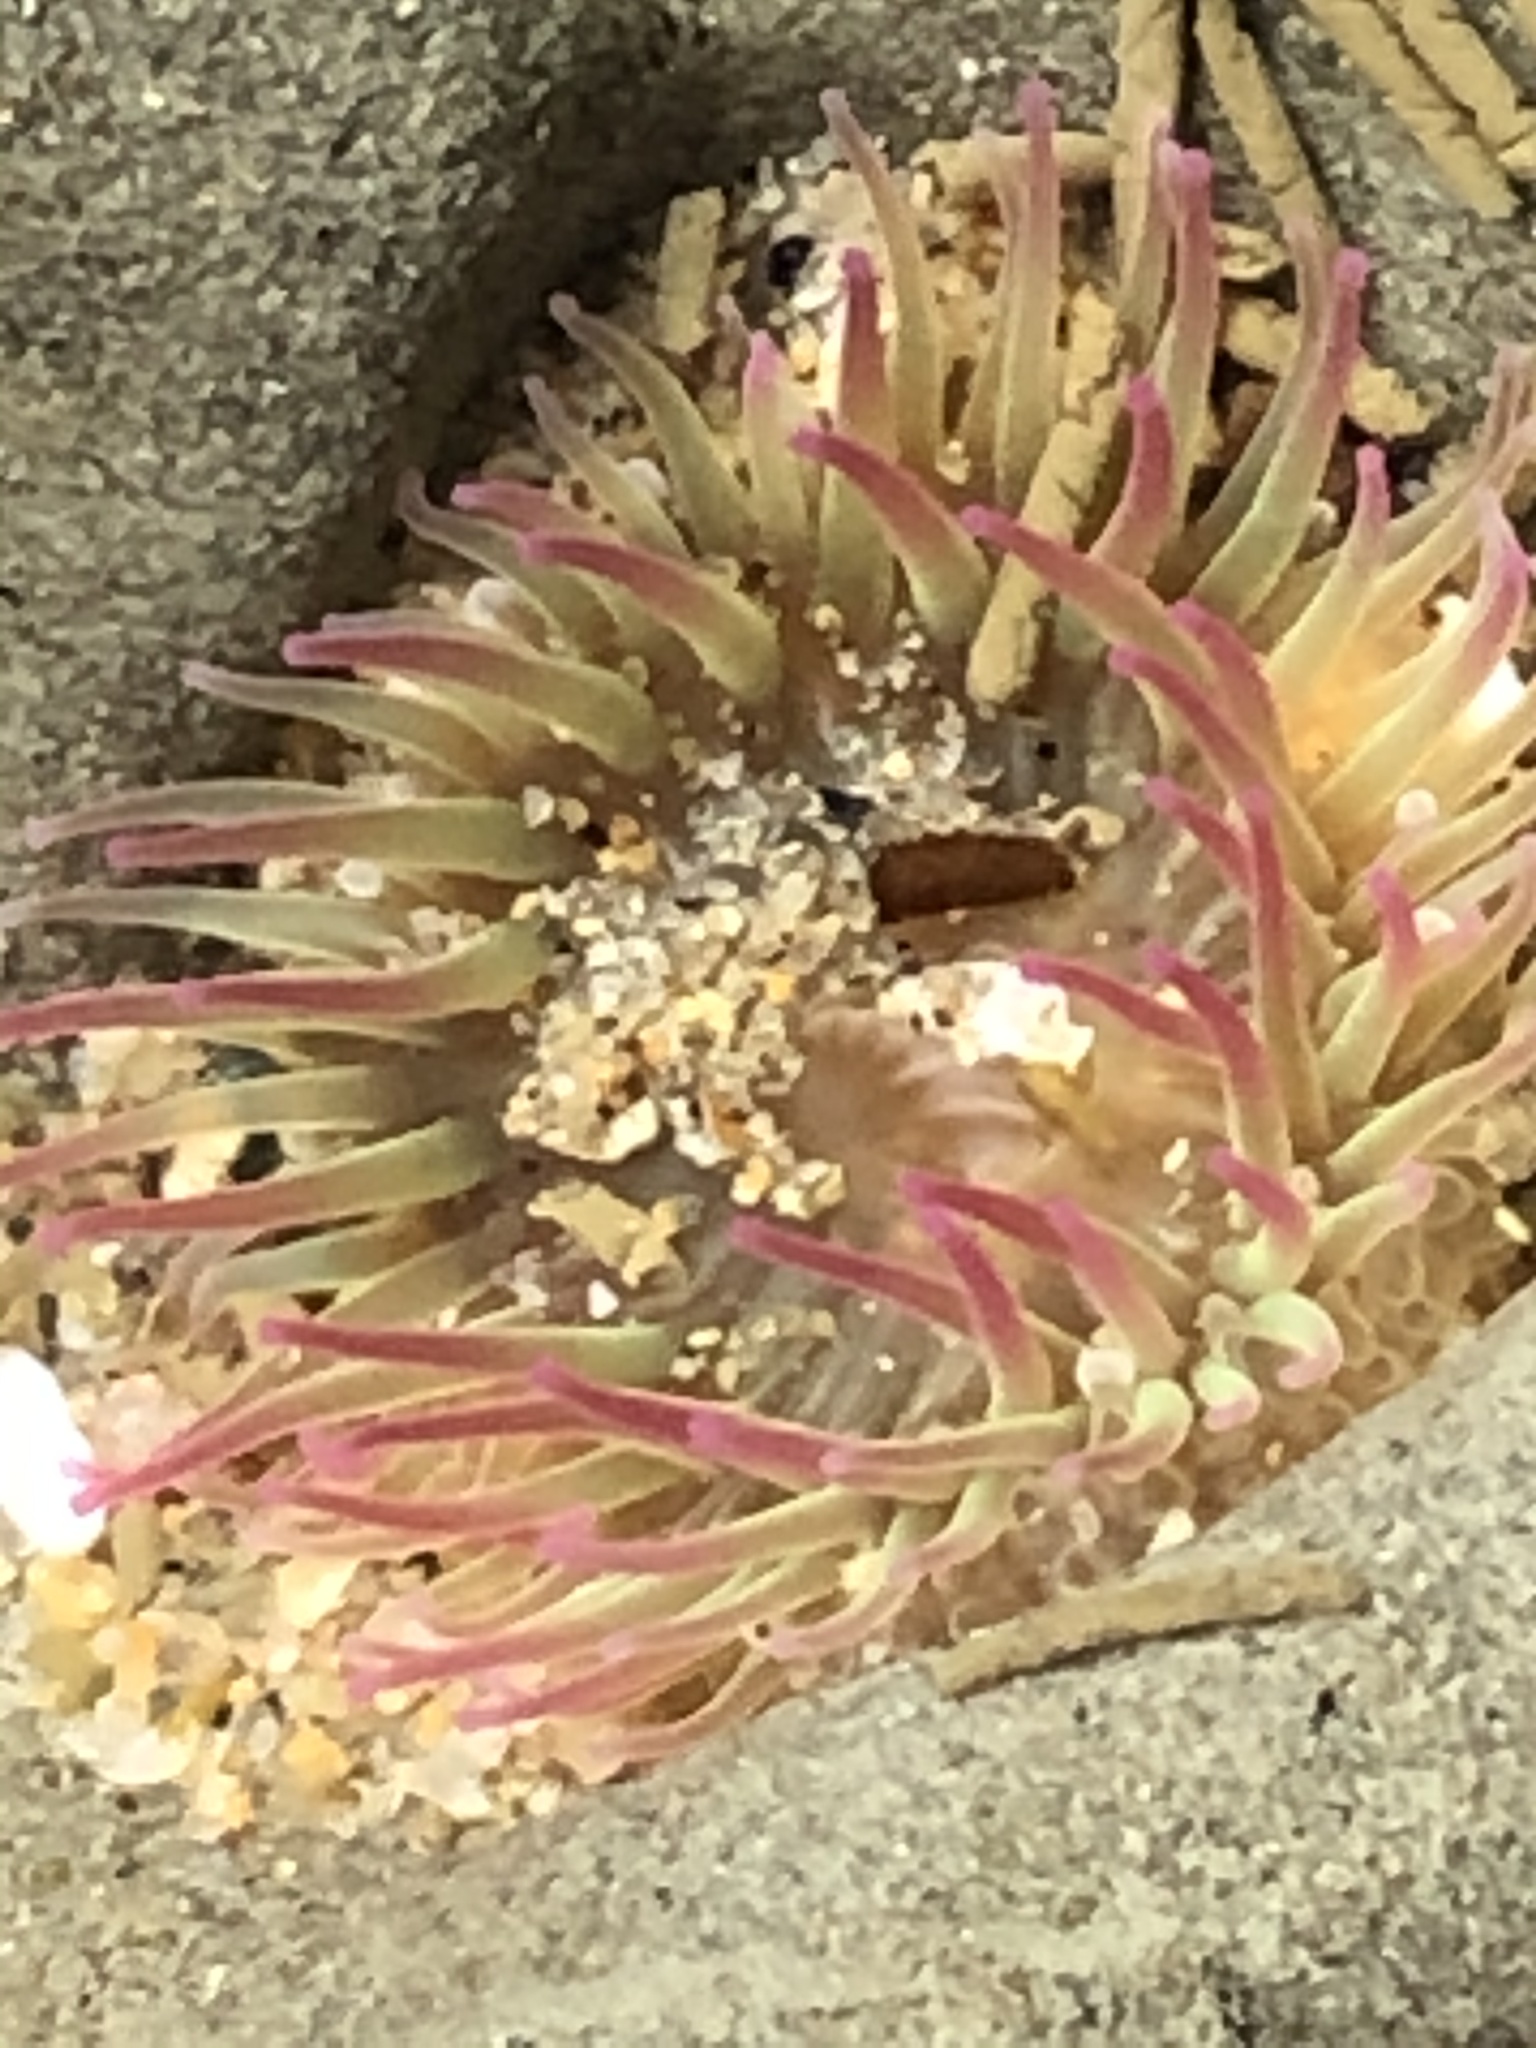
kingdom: Animalia
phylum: Cnidaria
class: Anthozoa
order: Actiniaria
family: Actiniidae
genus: Anthopleura
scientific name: Anthopleura elegantissima
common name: Clonal anemone
